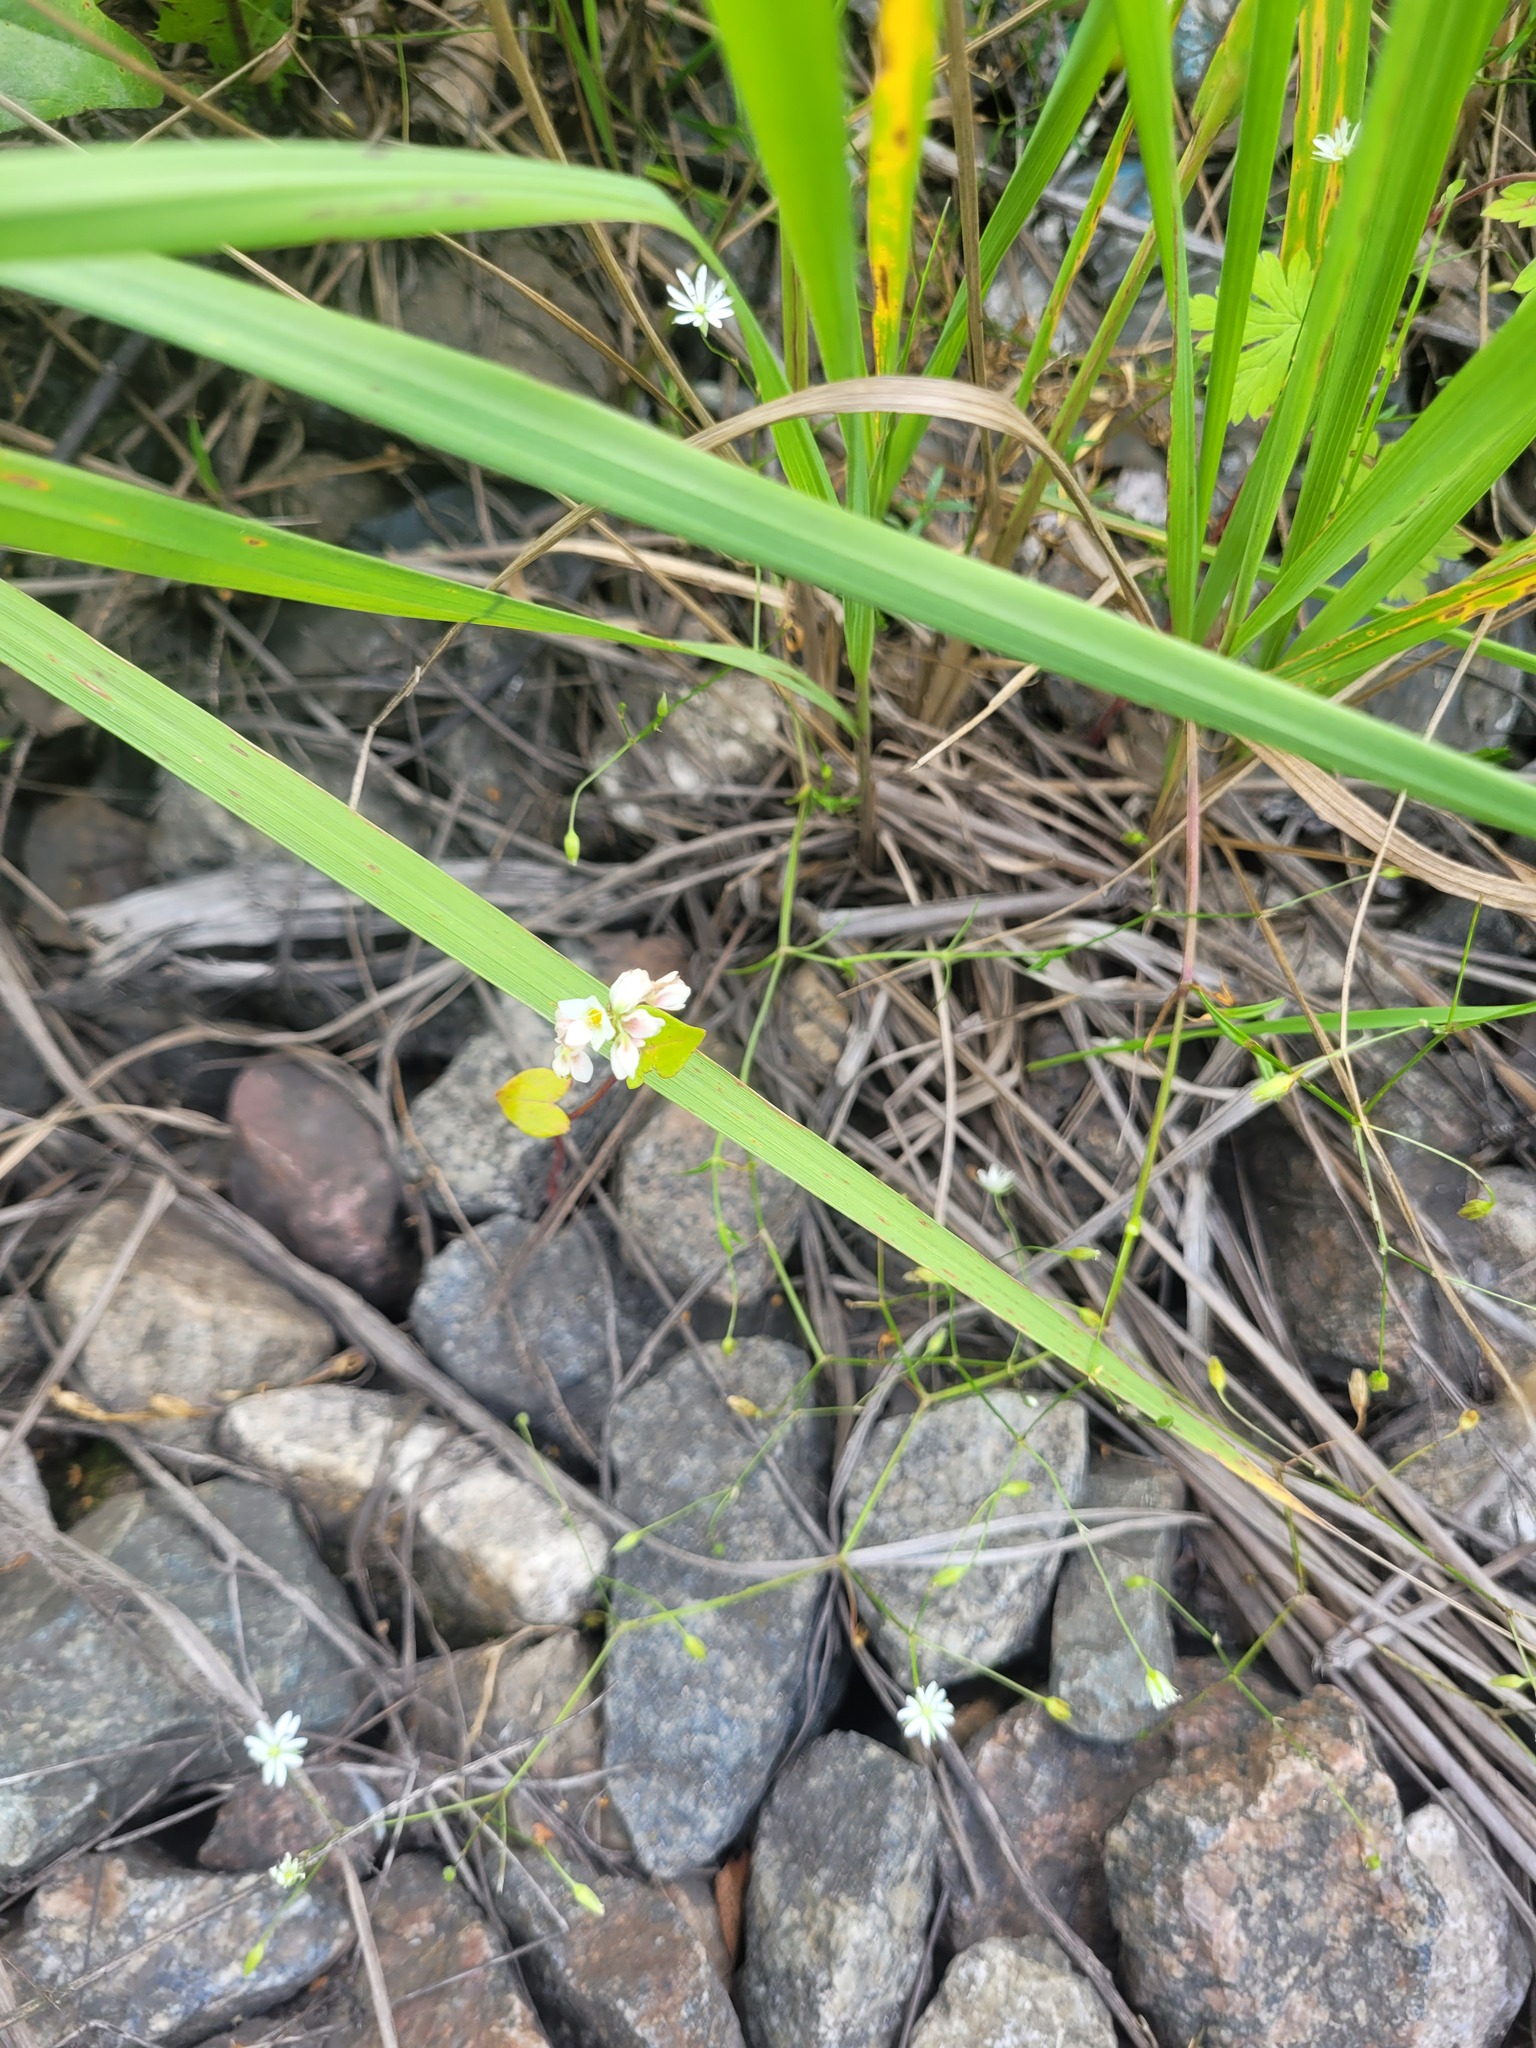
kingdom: Plantae
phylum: Tracheophyta
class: Magnoliopsida
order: Caryophyllales
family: Polygonaceae
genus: Fagopyrum
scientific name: Fagopyrum esculentum
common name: Buckwheat
